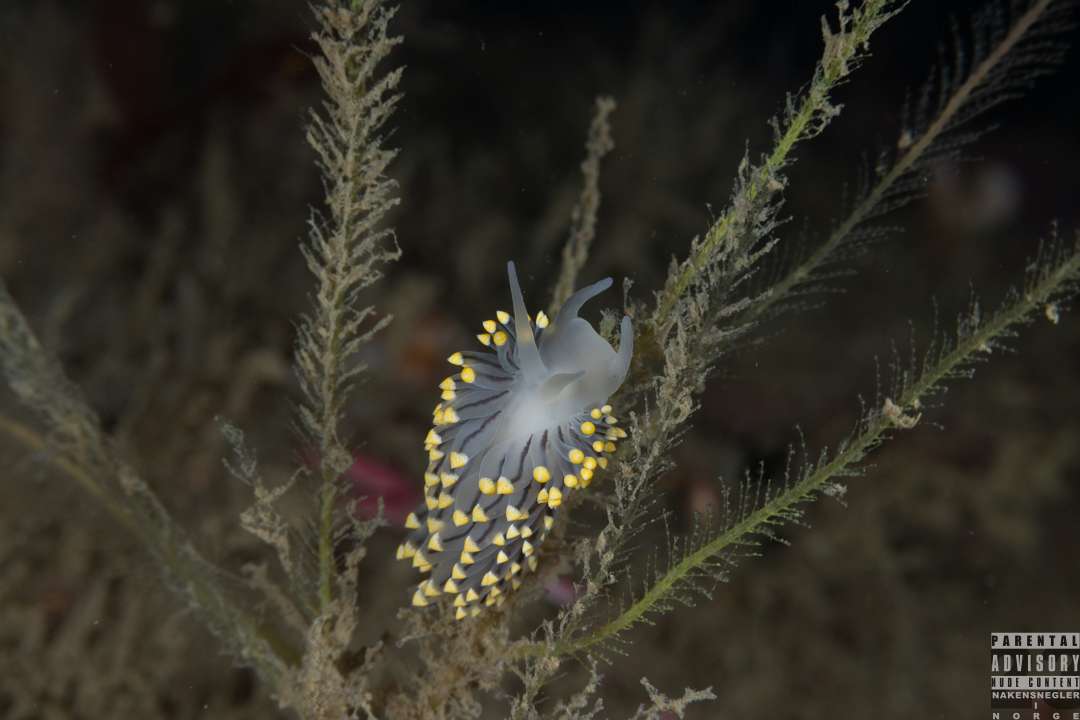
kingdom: Animalia
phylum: Mollusca
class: Gastropoda
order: Nudibranchia
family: Eubranchidae
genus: Eubranchus
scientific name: Eubranchus tricolor
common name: Painted balloon aeolis
